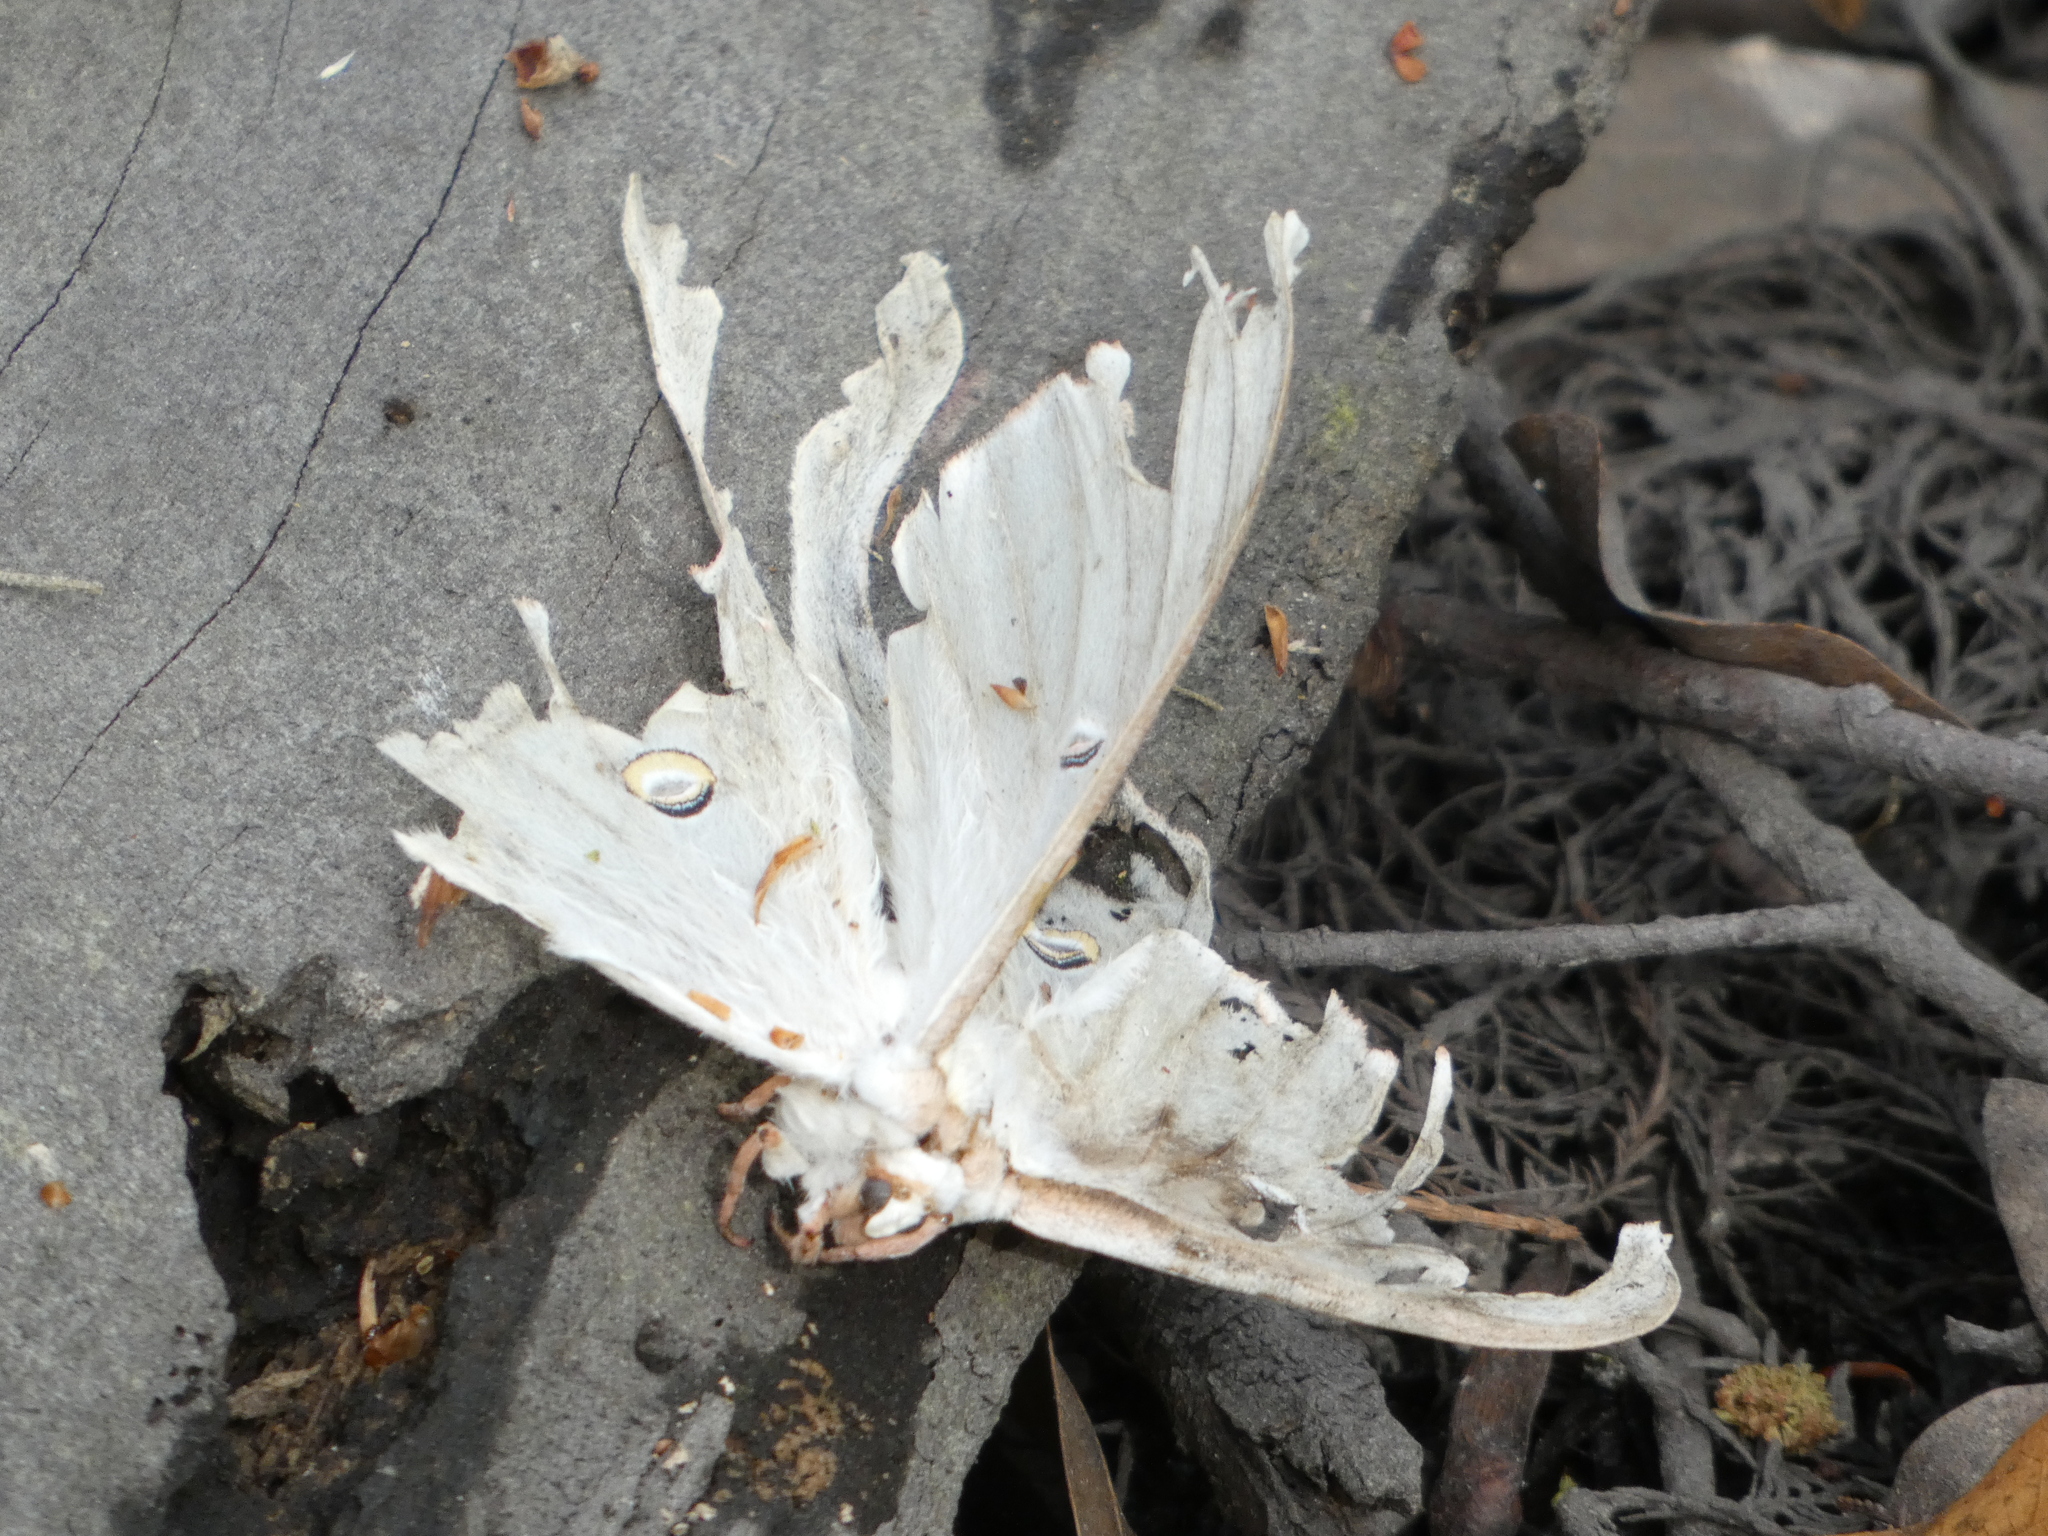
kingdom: Animalia
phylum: Arthropoda
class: Insecta
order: Lepidoptera
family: Saturniidae
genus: Actias
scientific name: Actias luna
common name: Luna moth
